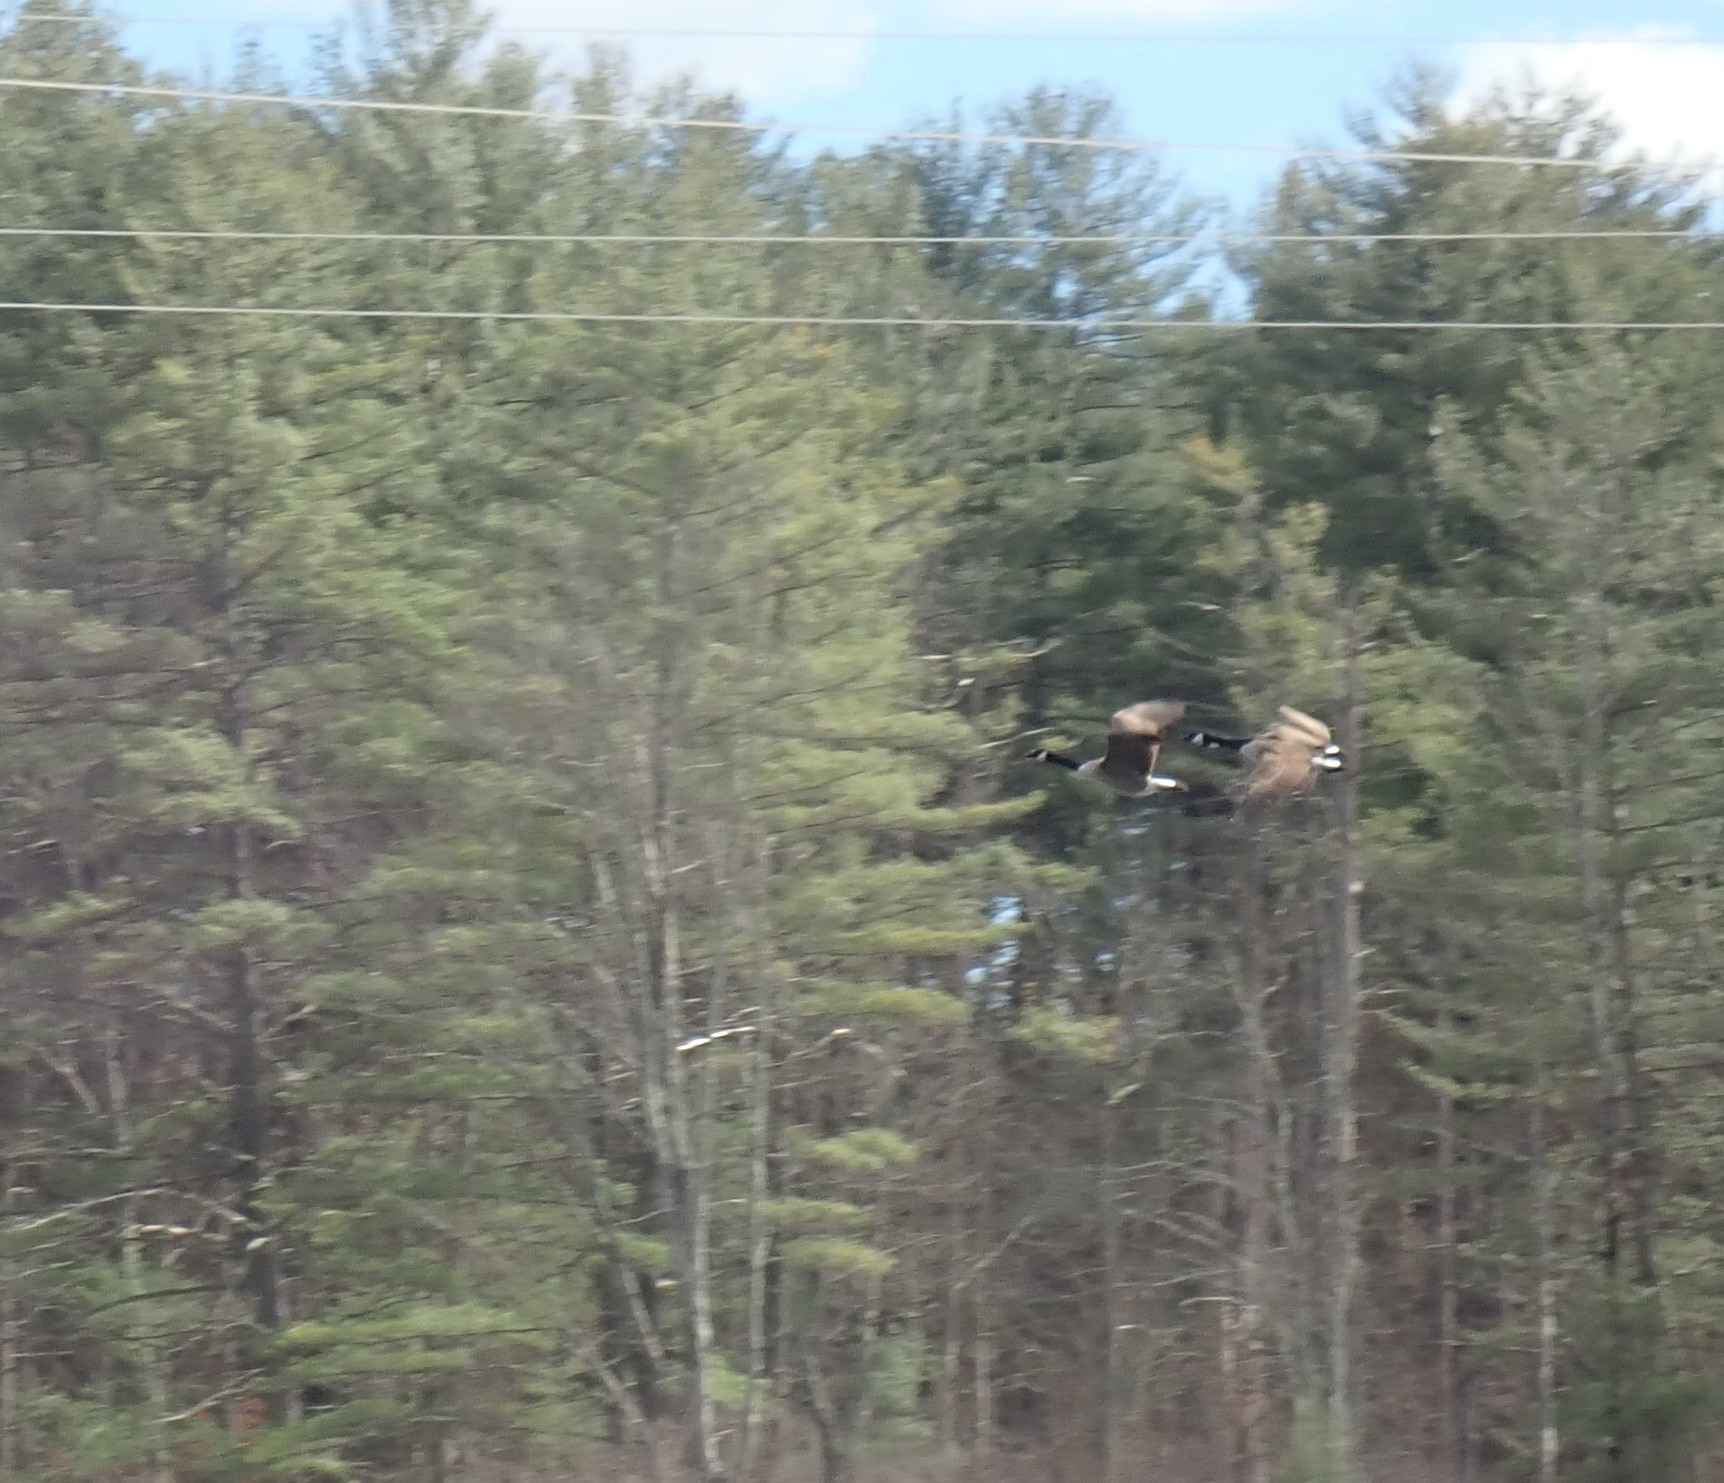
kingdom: Animalia
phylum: Chordata
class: Aves
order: Anseriformes
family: Anatidae
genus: Branta
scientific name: Branta canadensis
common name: Canada goose
